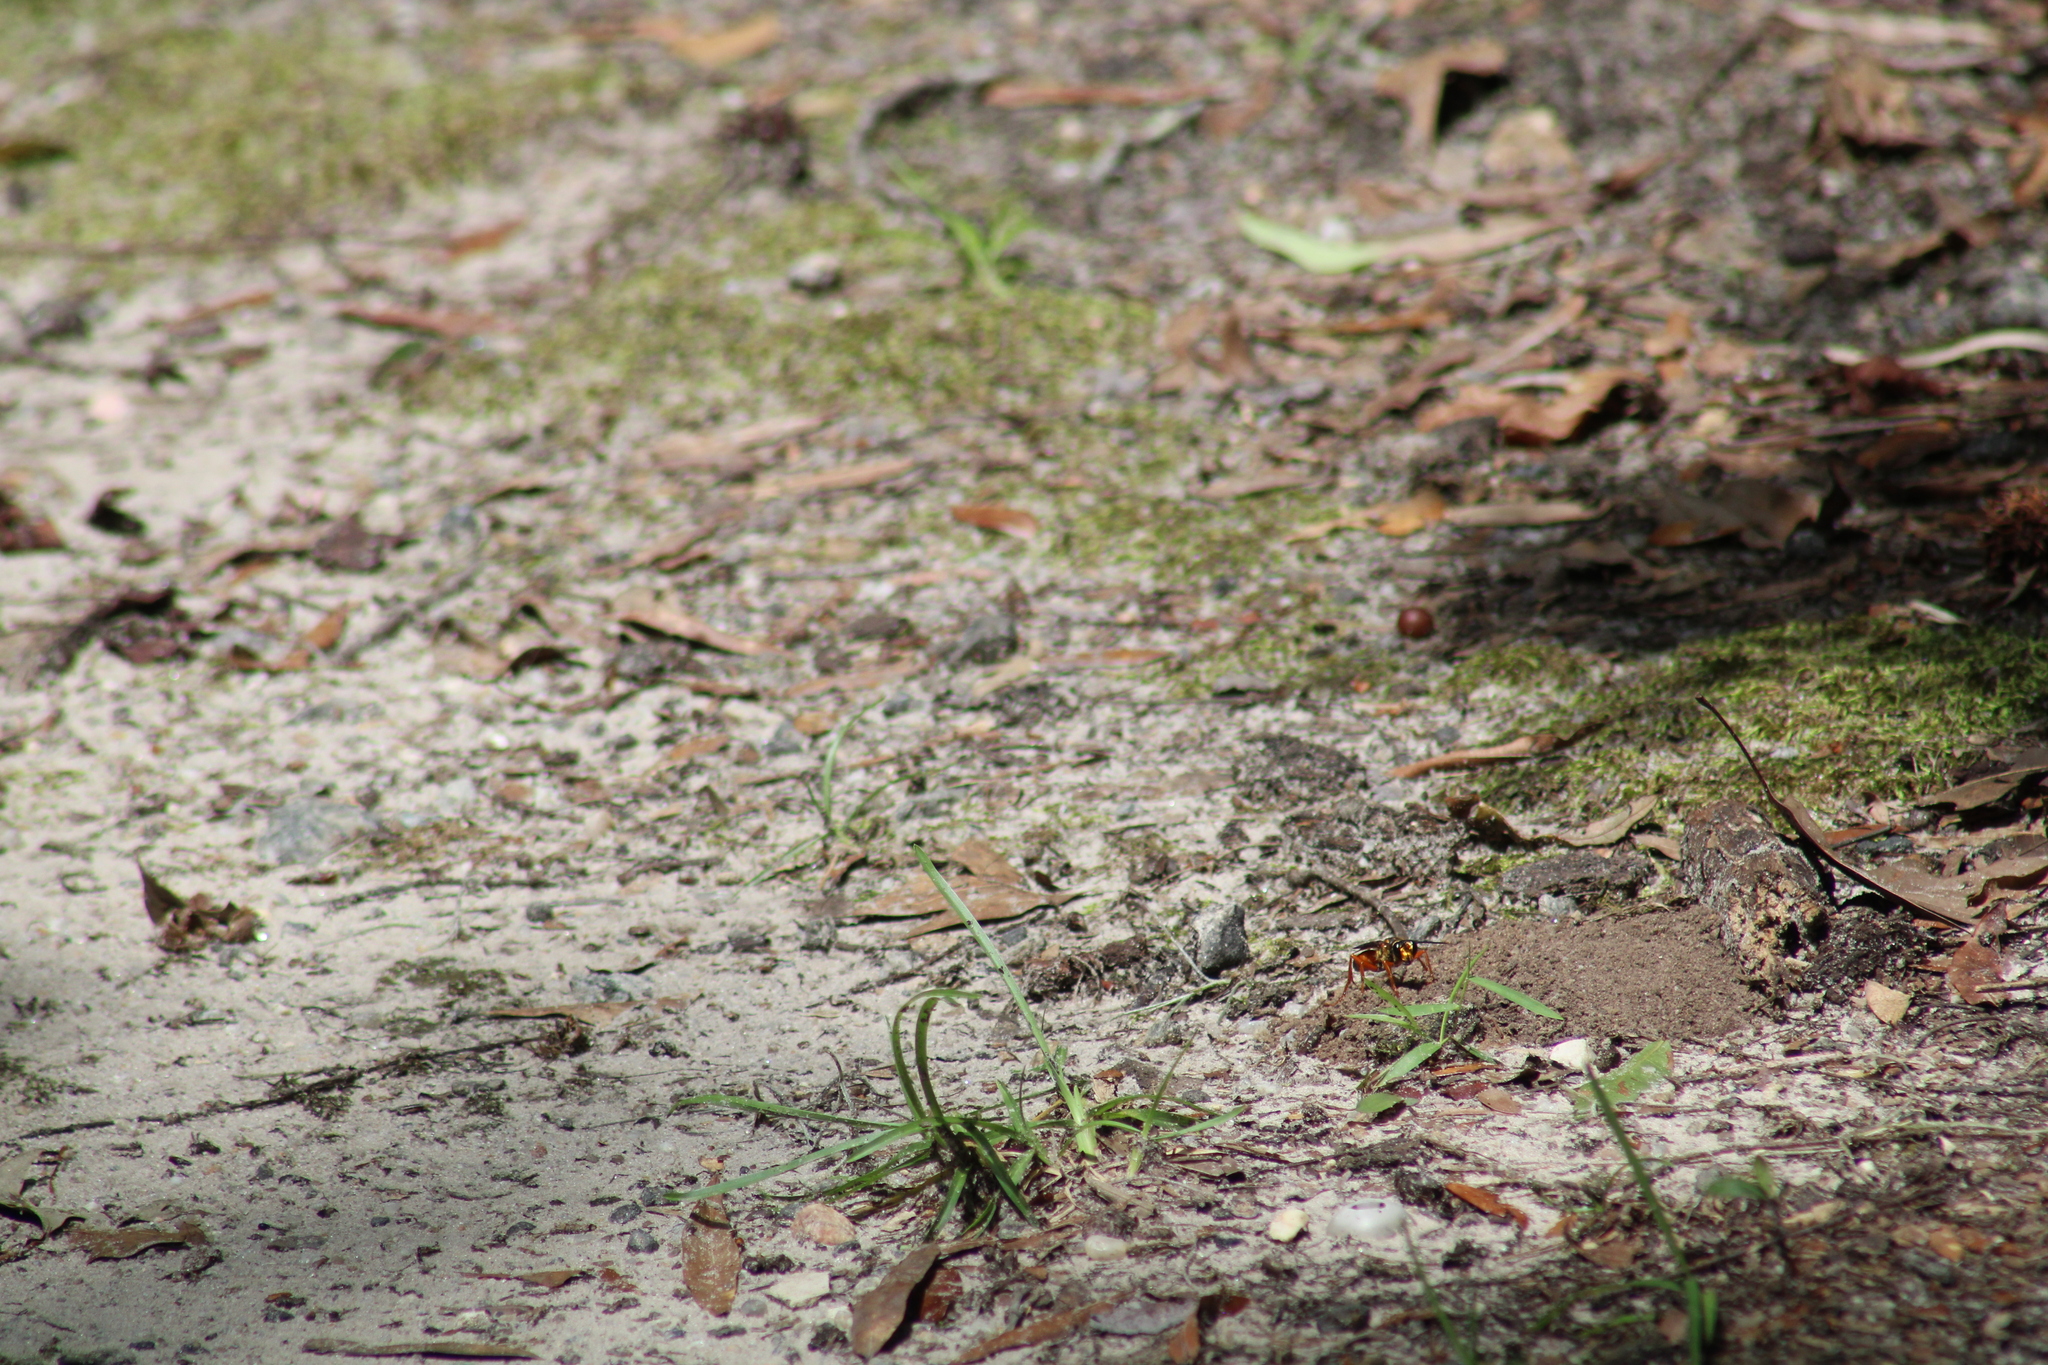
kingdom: Animalia
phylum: Arthropoda
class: Insecta
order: Hymenoptera
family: Sphecidae
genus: Sphex
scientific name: Sphex ichneumoneus
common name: Great golden digger wasp
